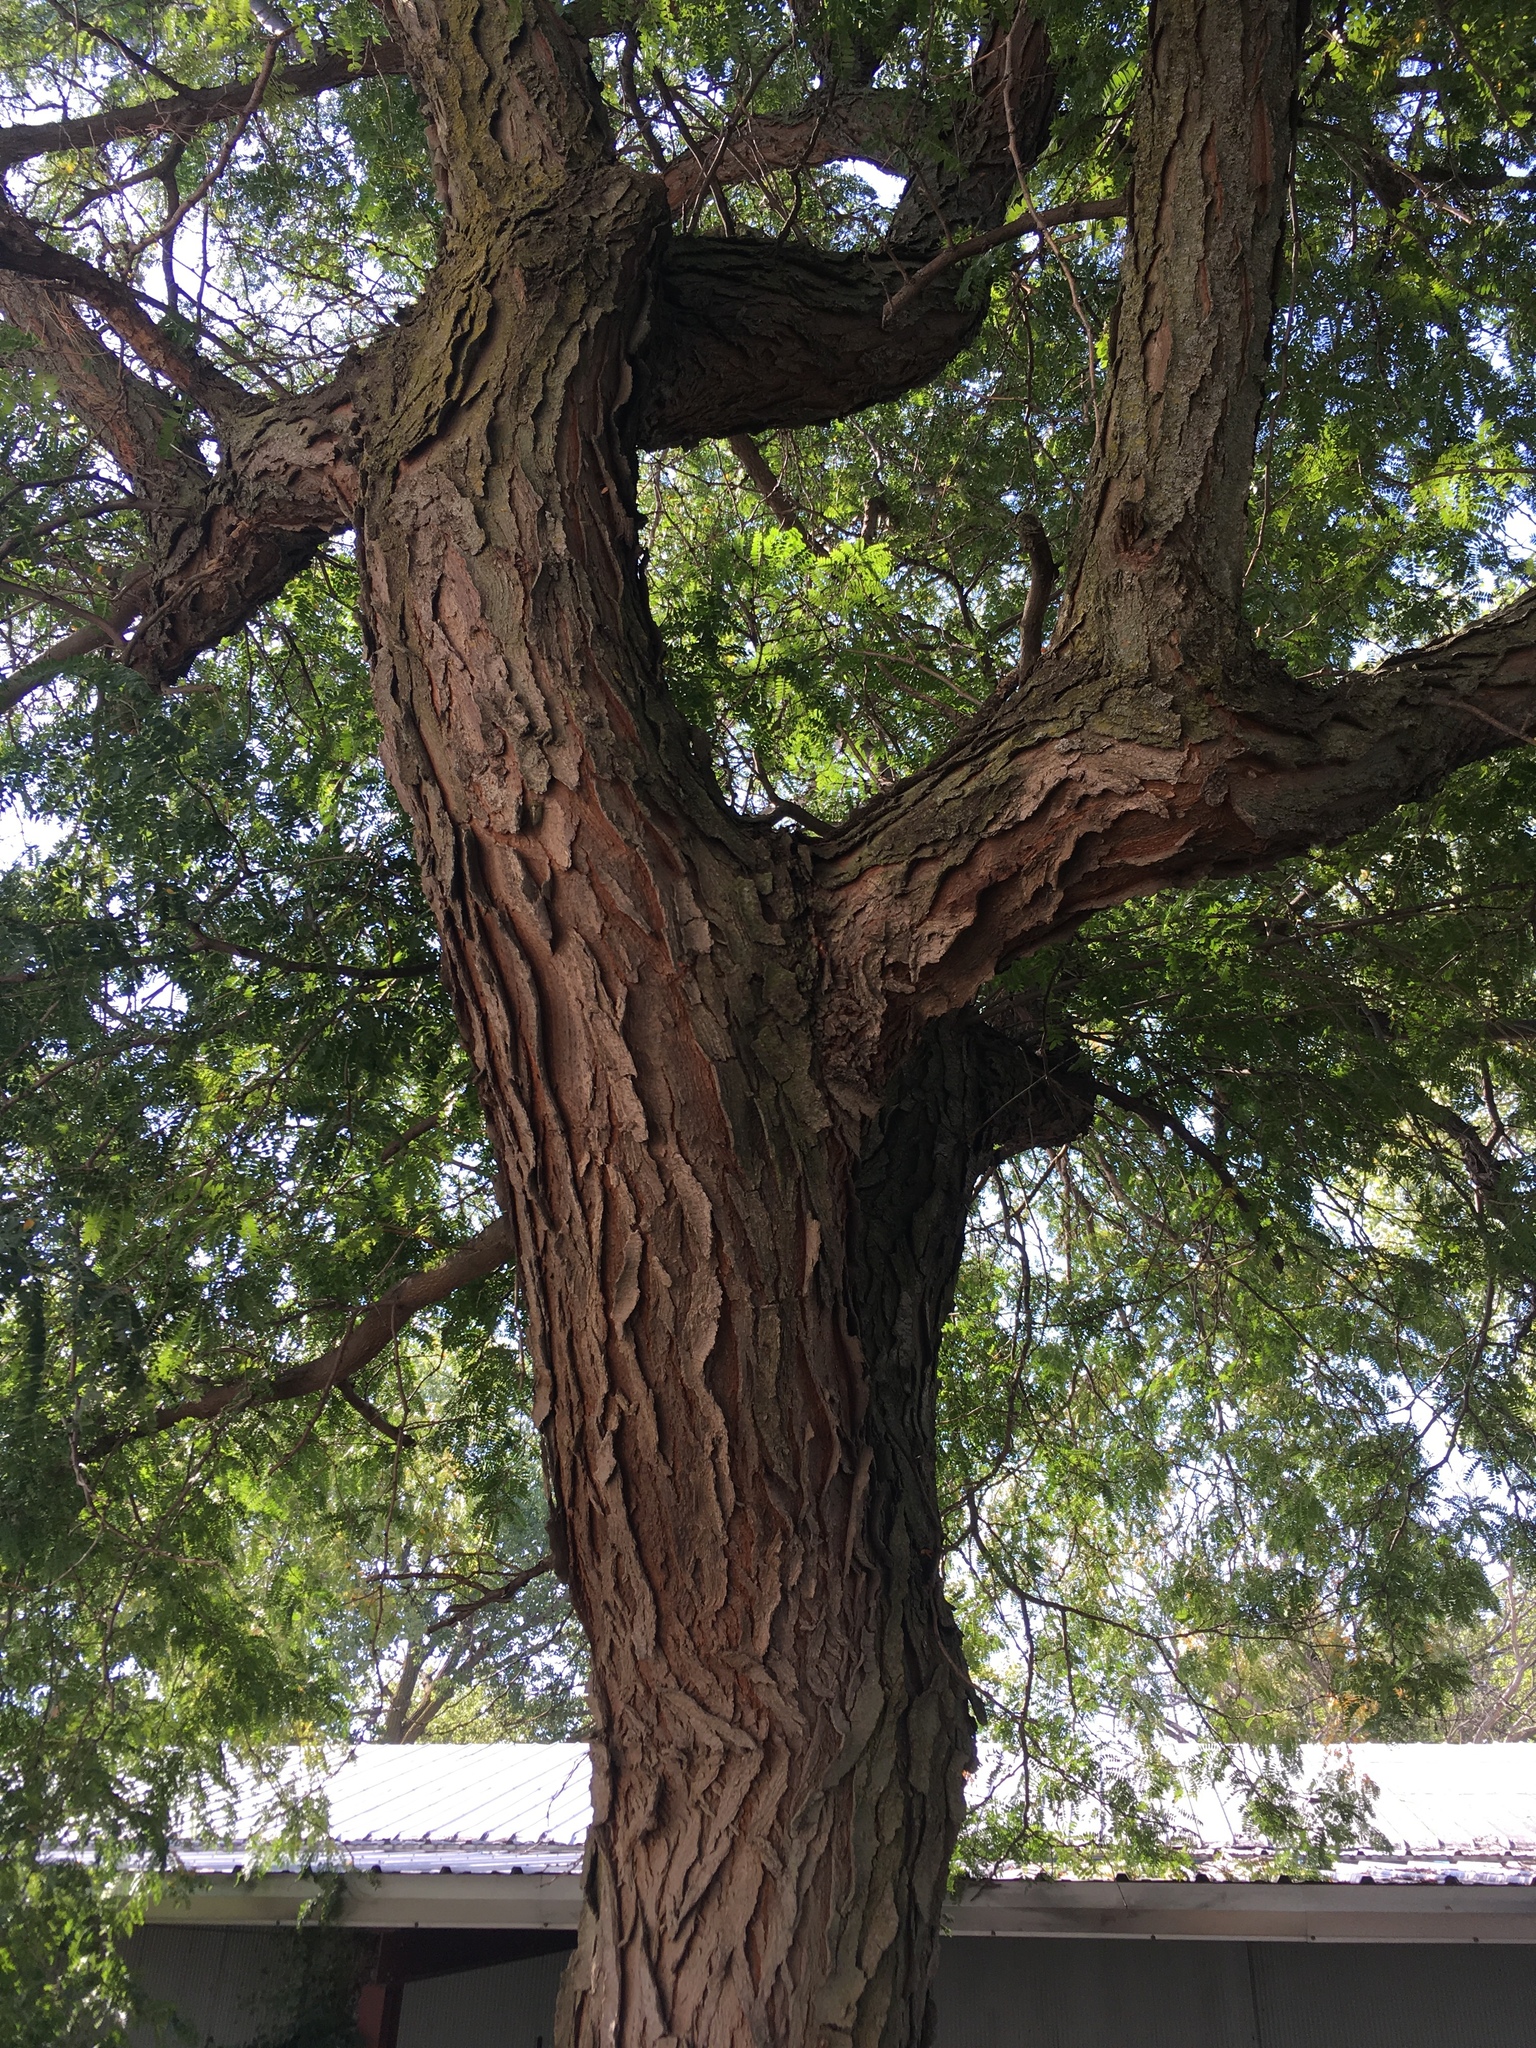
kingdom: Plantae
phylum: Tracheophyta
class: Magnoliopsida
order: Fabales
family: Fabaceae
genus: Gleditsia
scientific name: Gleditsia triacanthos
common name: Common honeylocust
